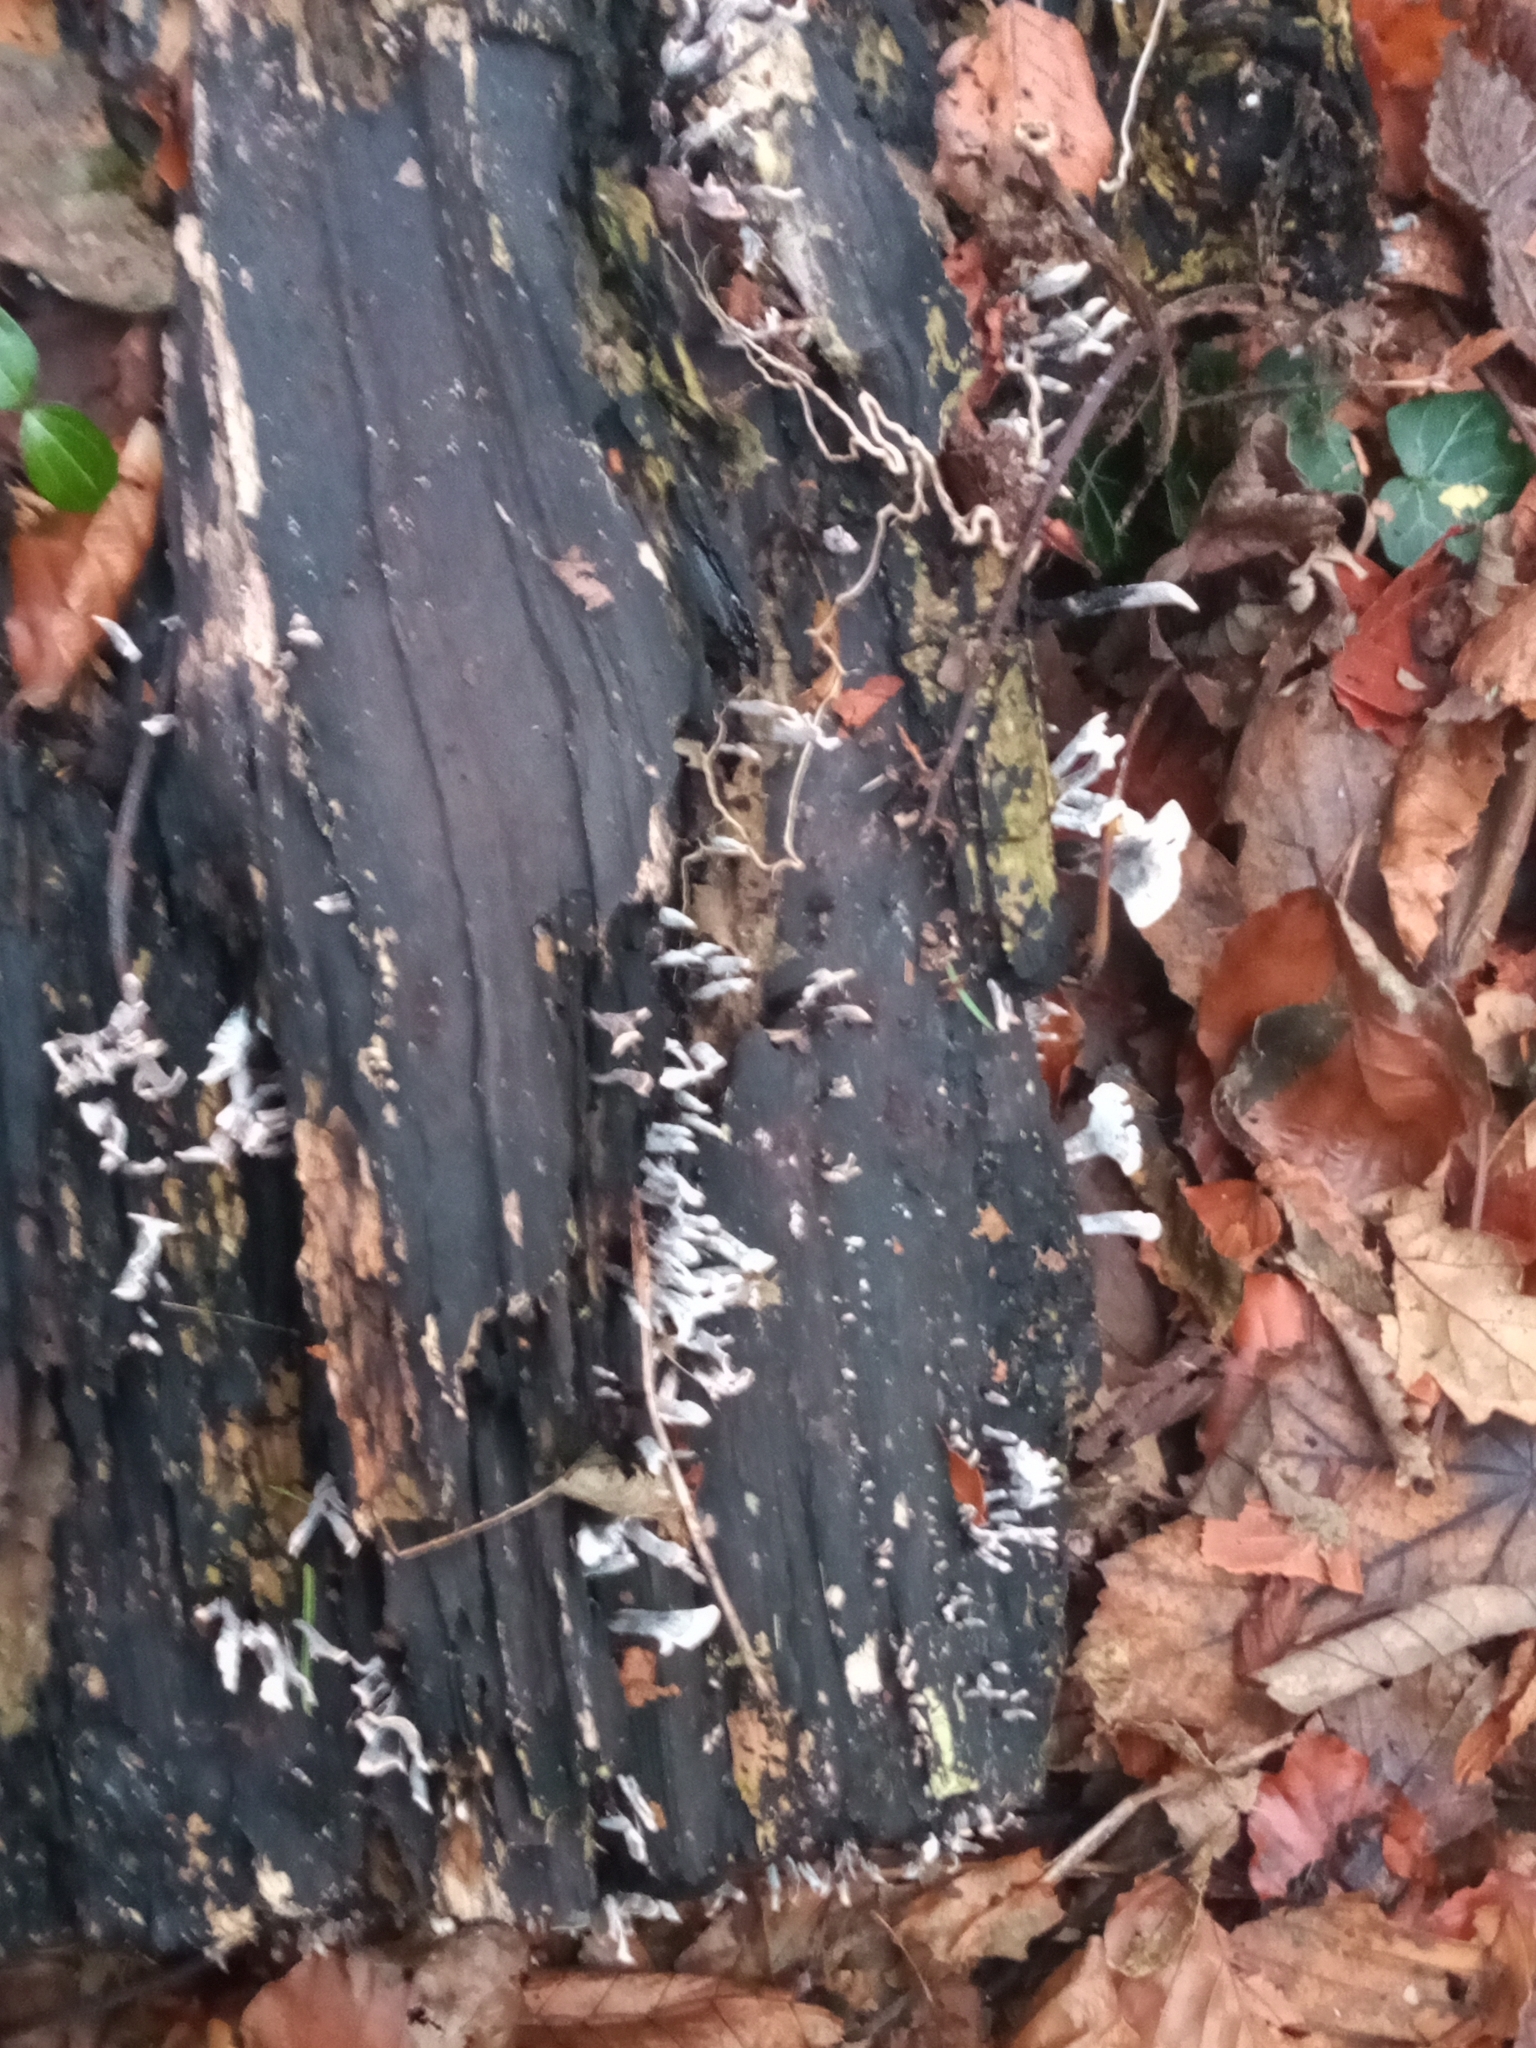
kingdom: Fungi
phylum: Ascomycota
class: Sordariomycetes
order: Xylariales
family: Xylariaceae
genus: Xylaria
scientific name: Xylaria hypoxylon
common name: Candle-snuff fungus
